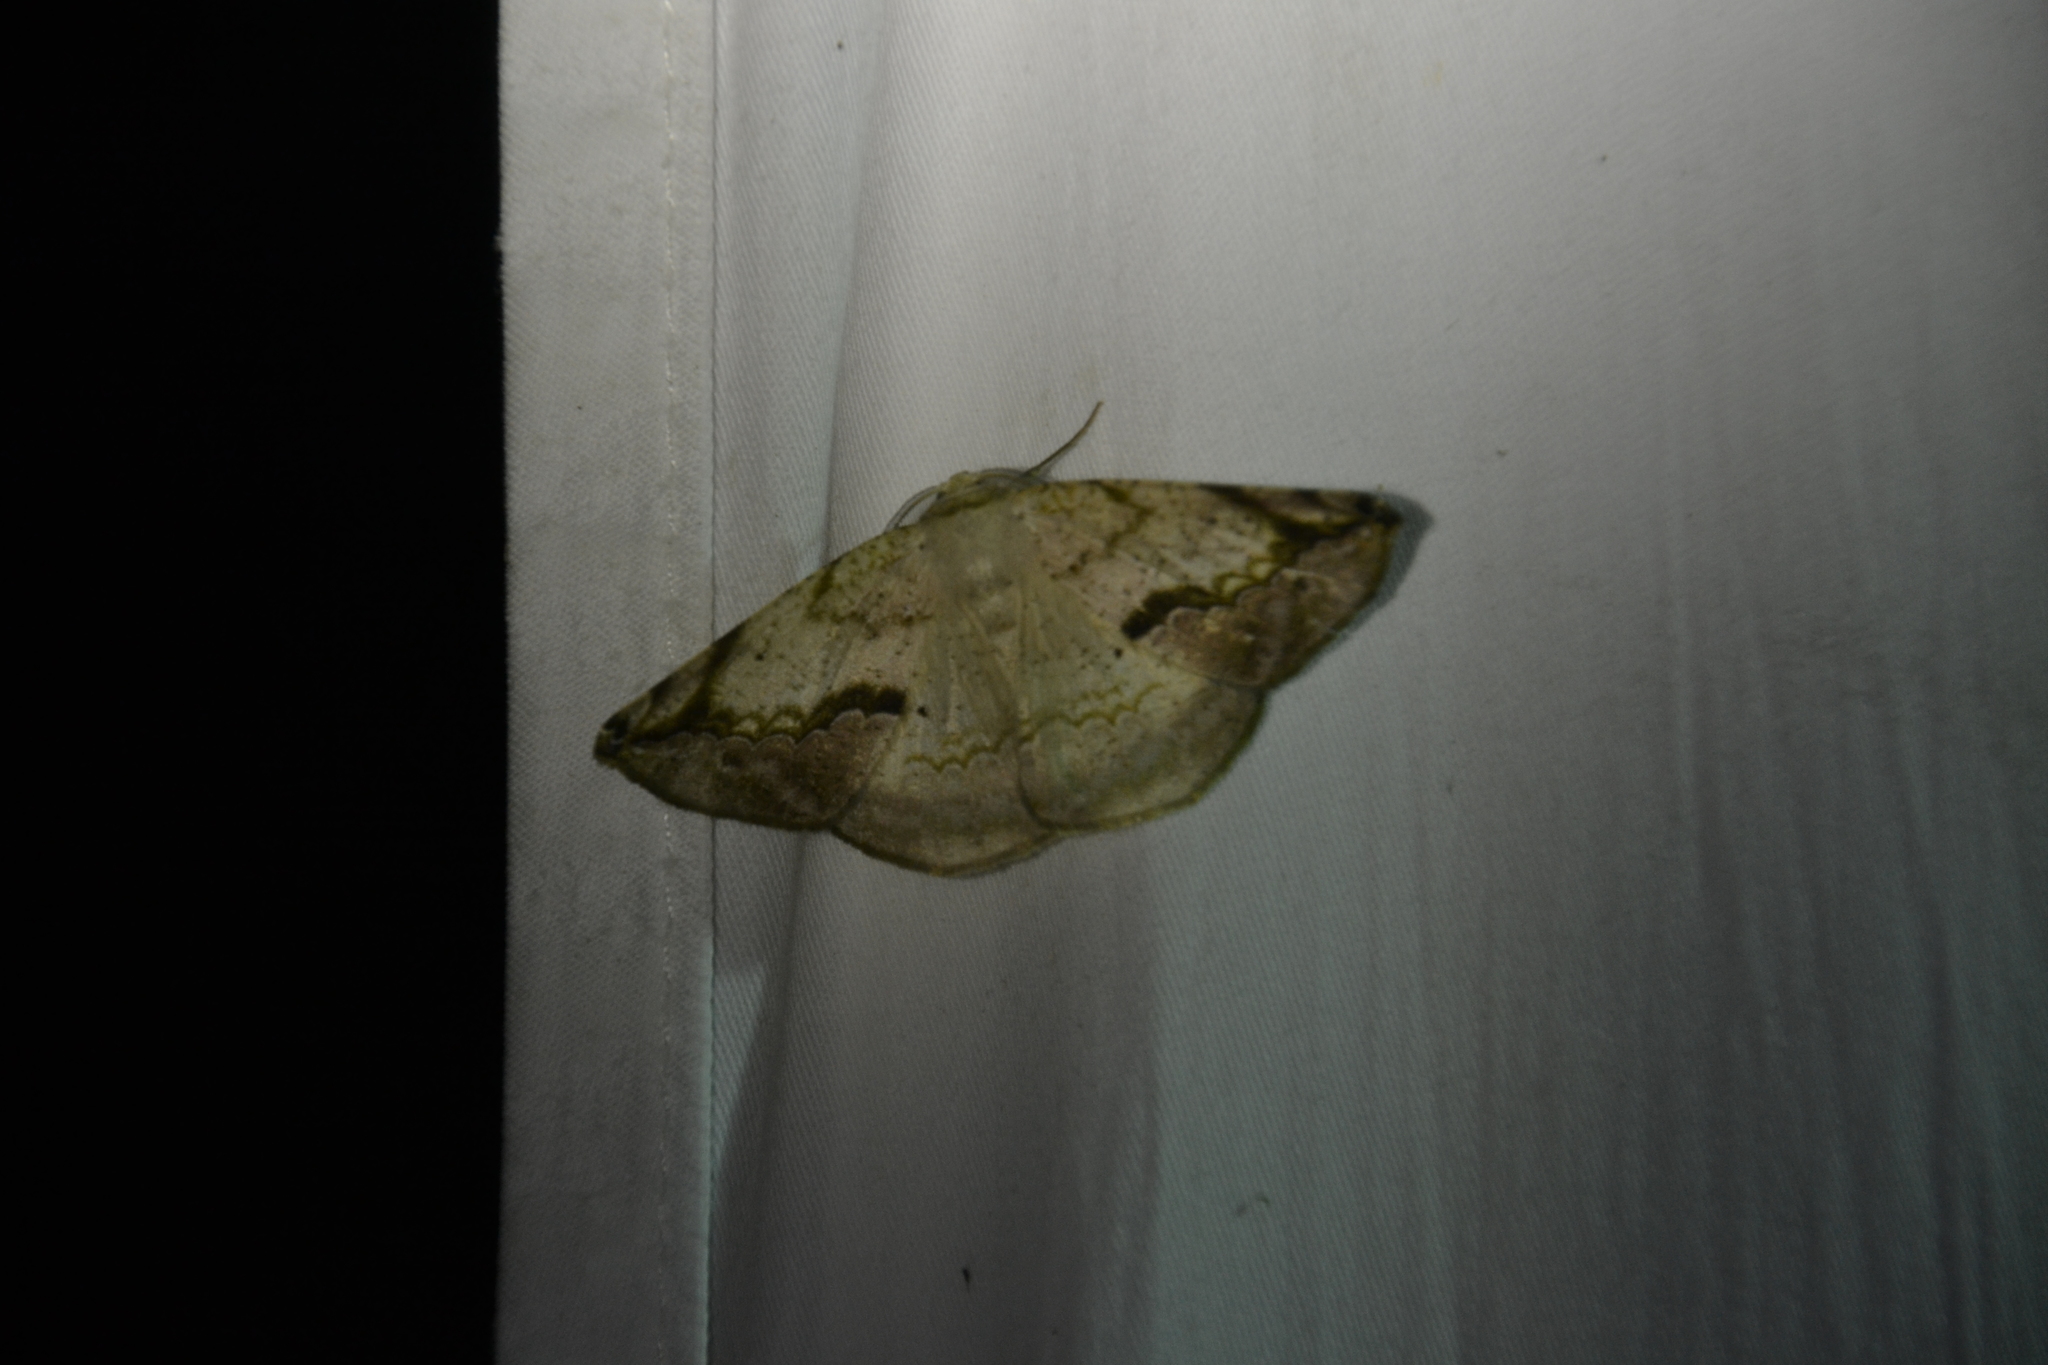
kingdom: Animalia
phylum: Arthropoda
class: Insecta
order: Lepidoptera
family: Geometridae
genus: Eusarca
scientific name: Eusarca nemora
